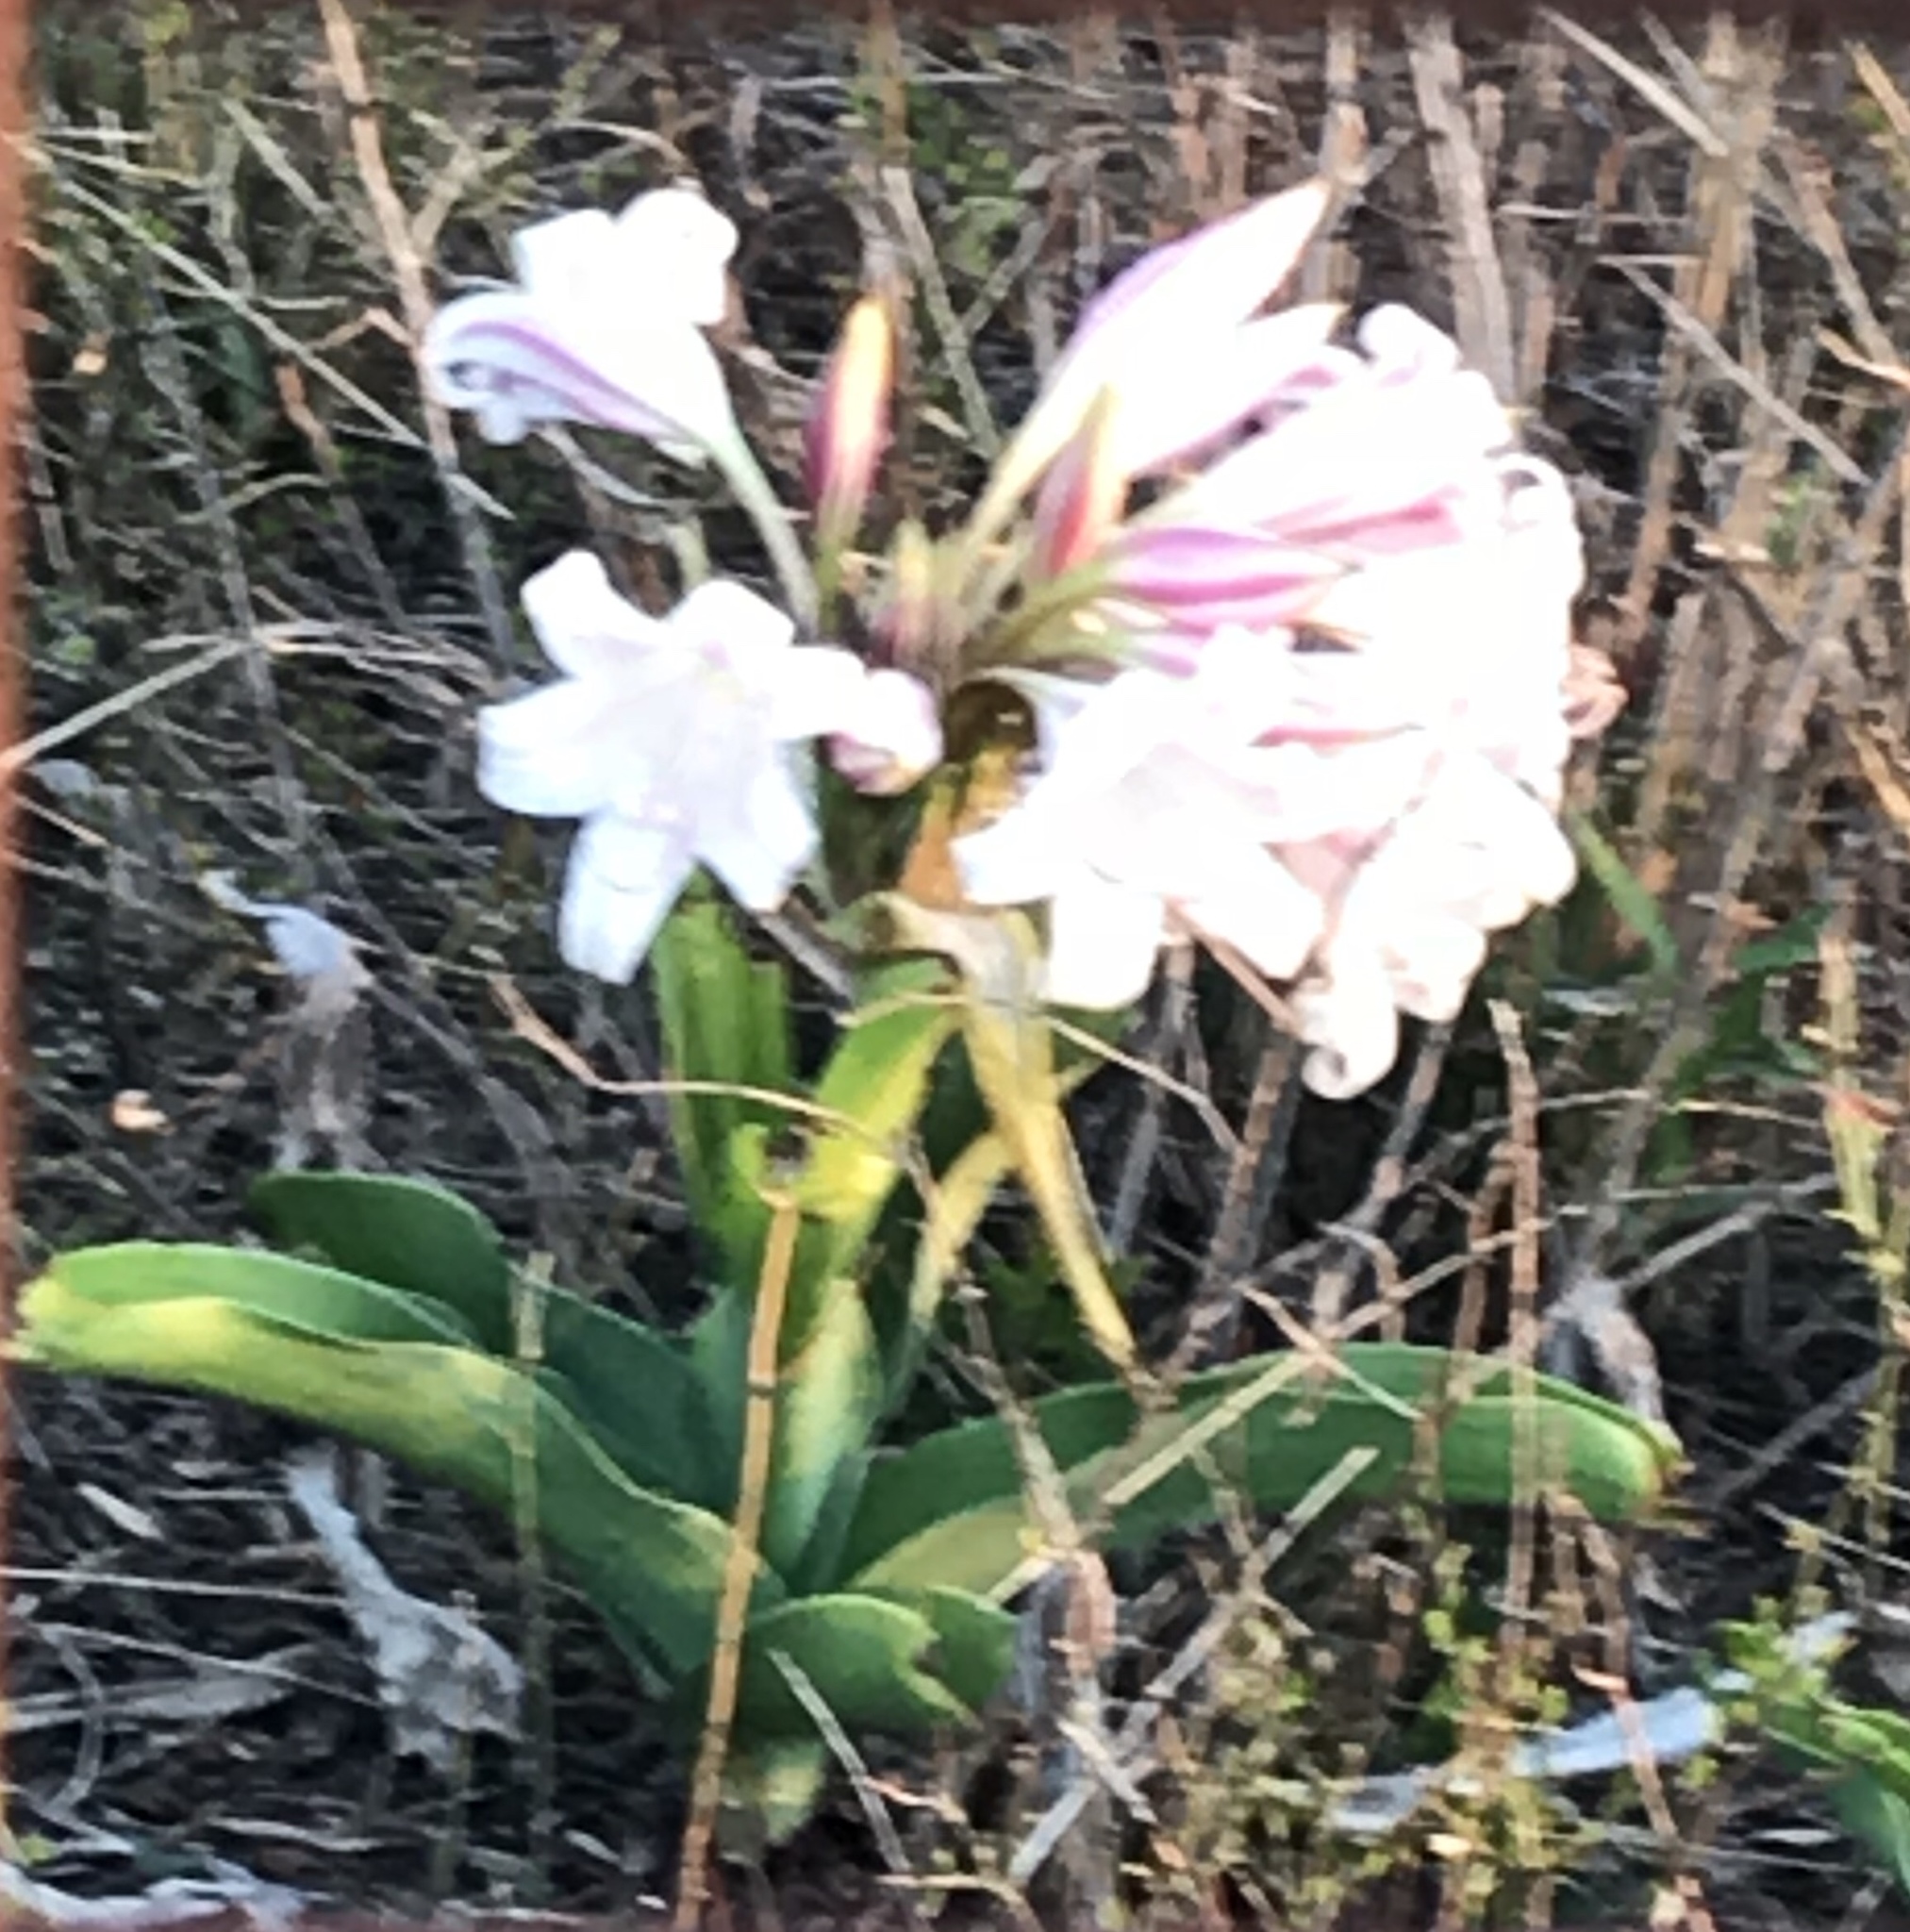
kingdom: Plantae
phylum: Tracheophyta
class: Liliopsida
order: Asparagales
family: Amaryllidaceae
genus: Crinum
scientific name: Crinum macowanii
